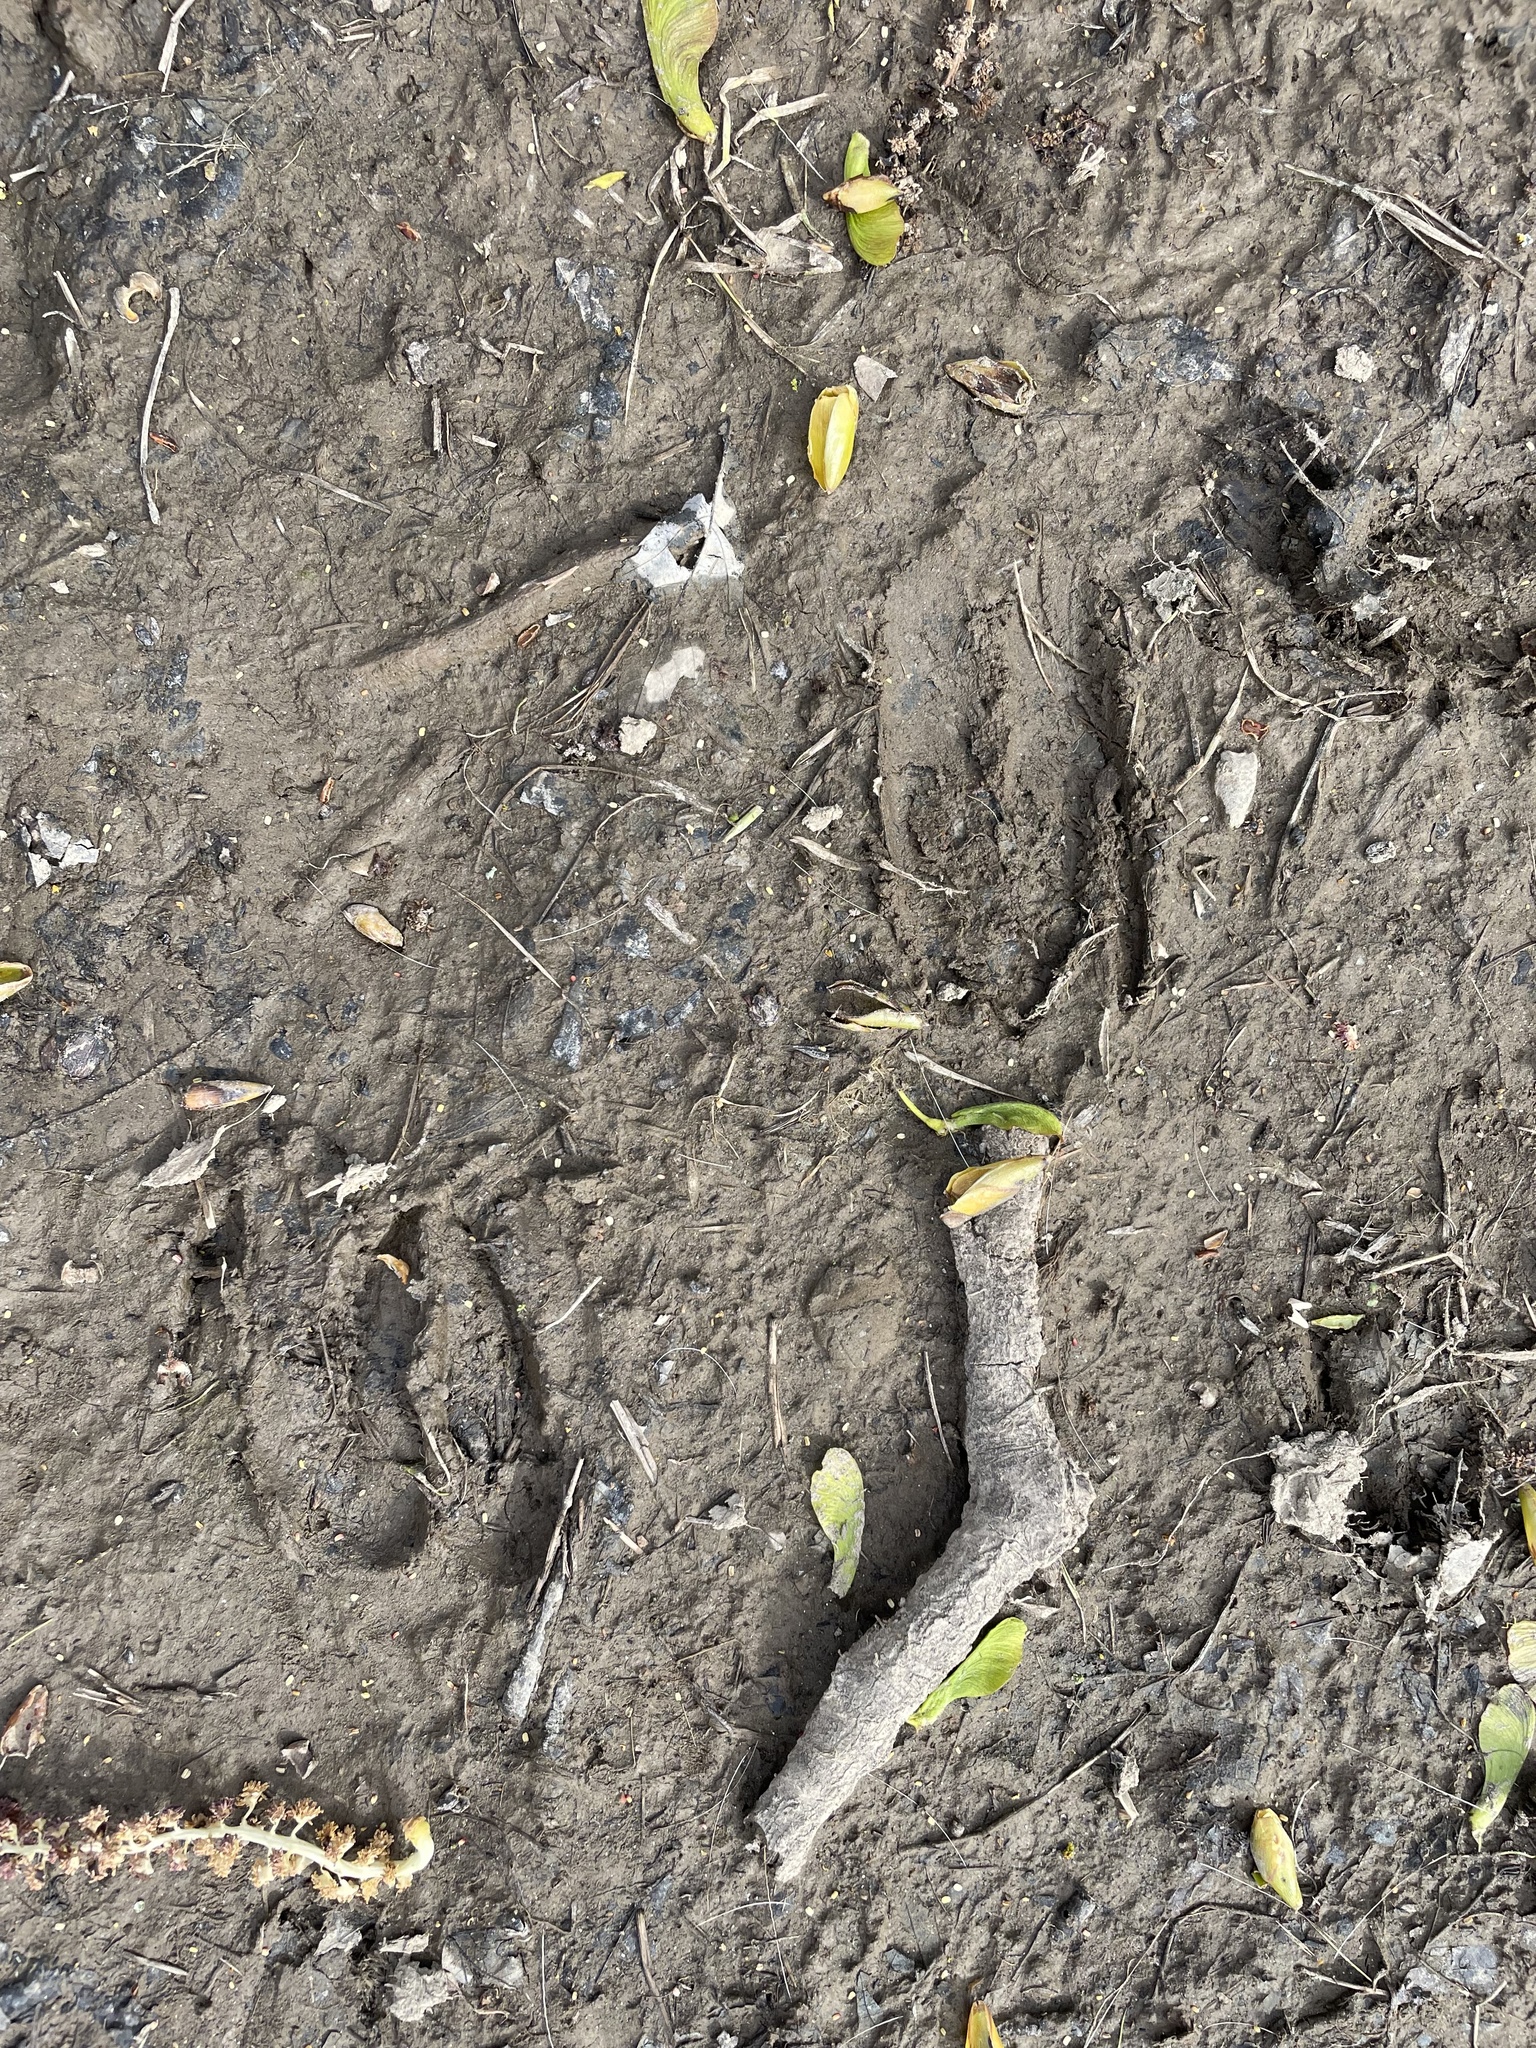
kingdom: Animalia
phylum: Chordata
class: Mammalia
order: Artiodactyla
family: Cervidae
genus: Odocoileus
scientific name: Odocoileus hemionus
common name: Mule deer
